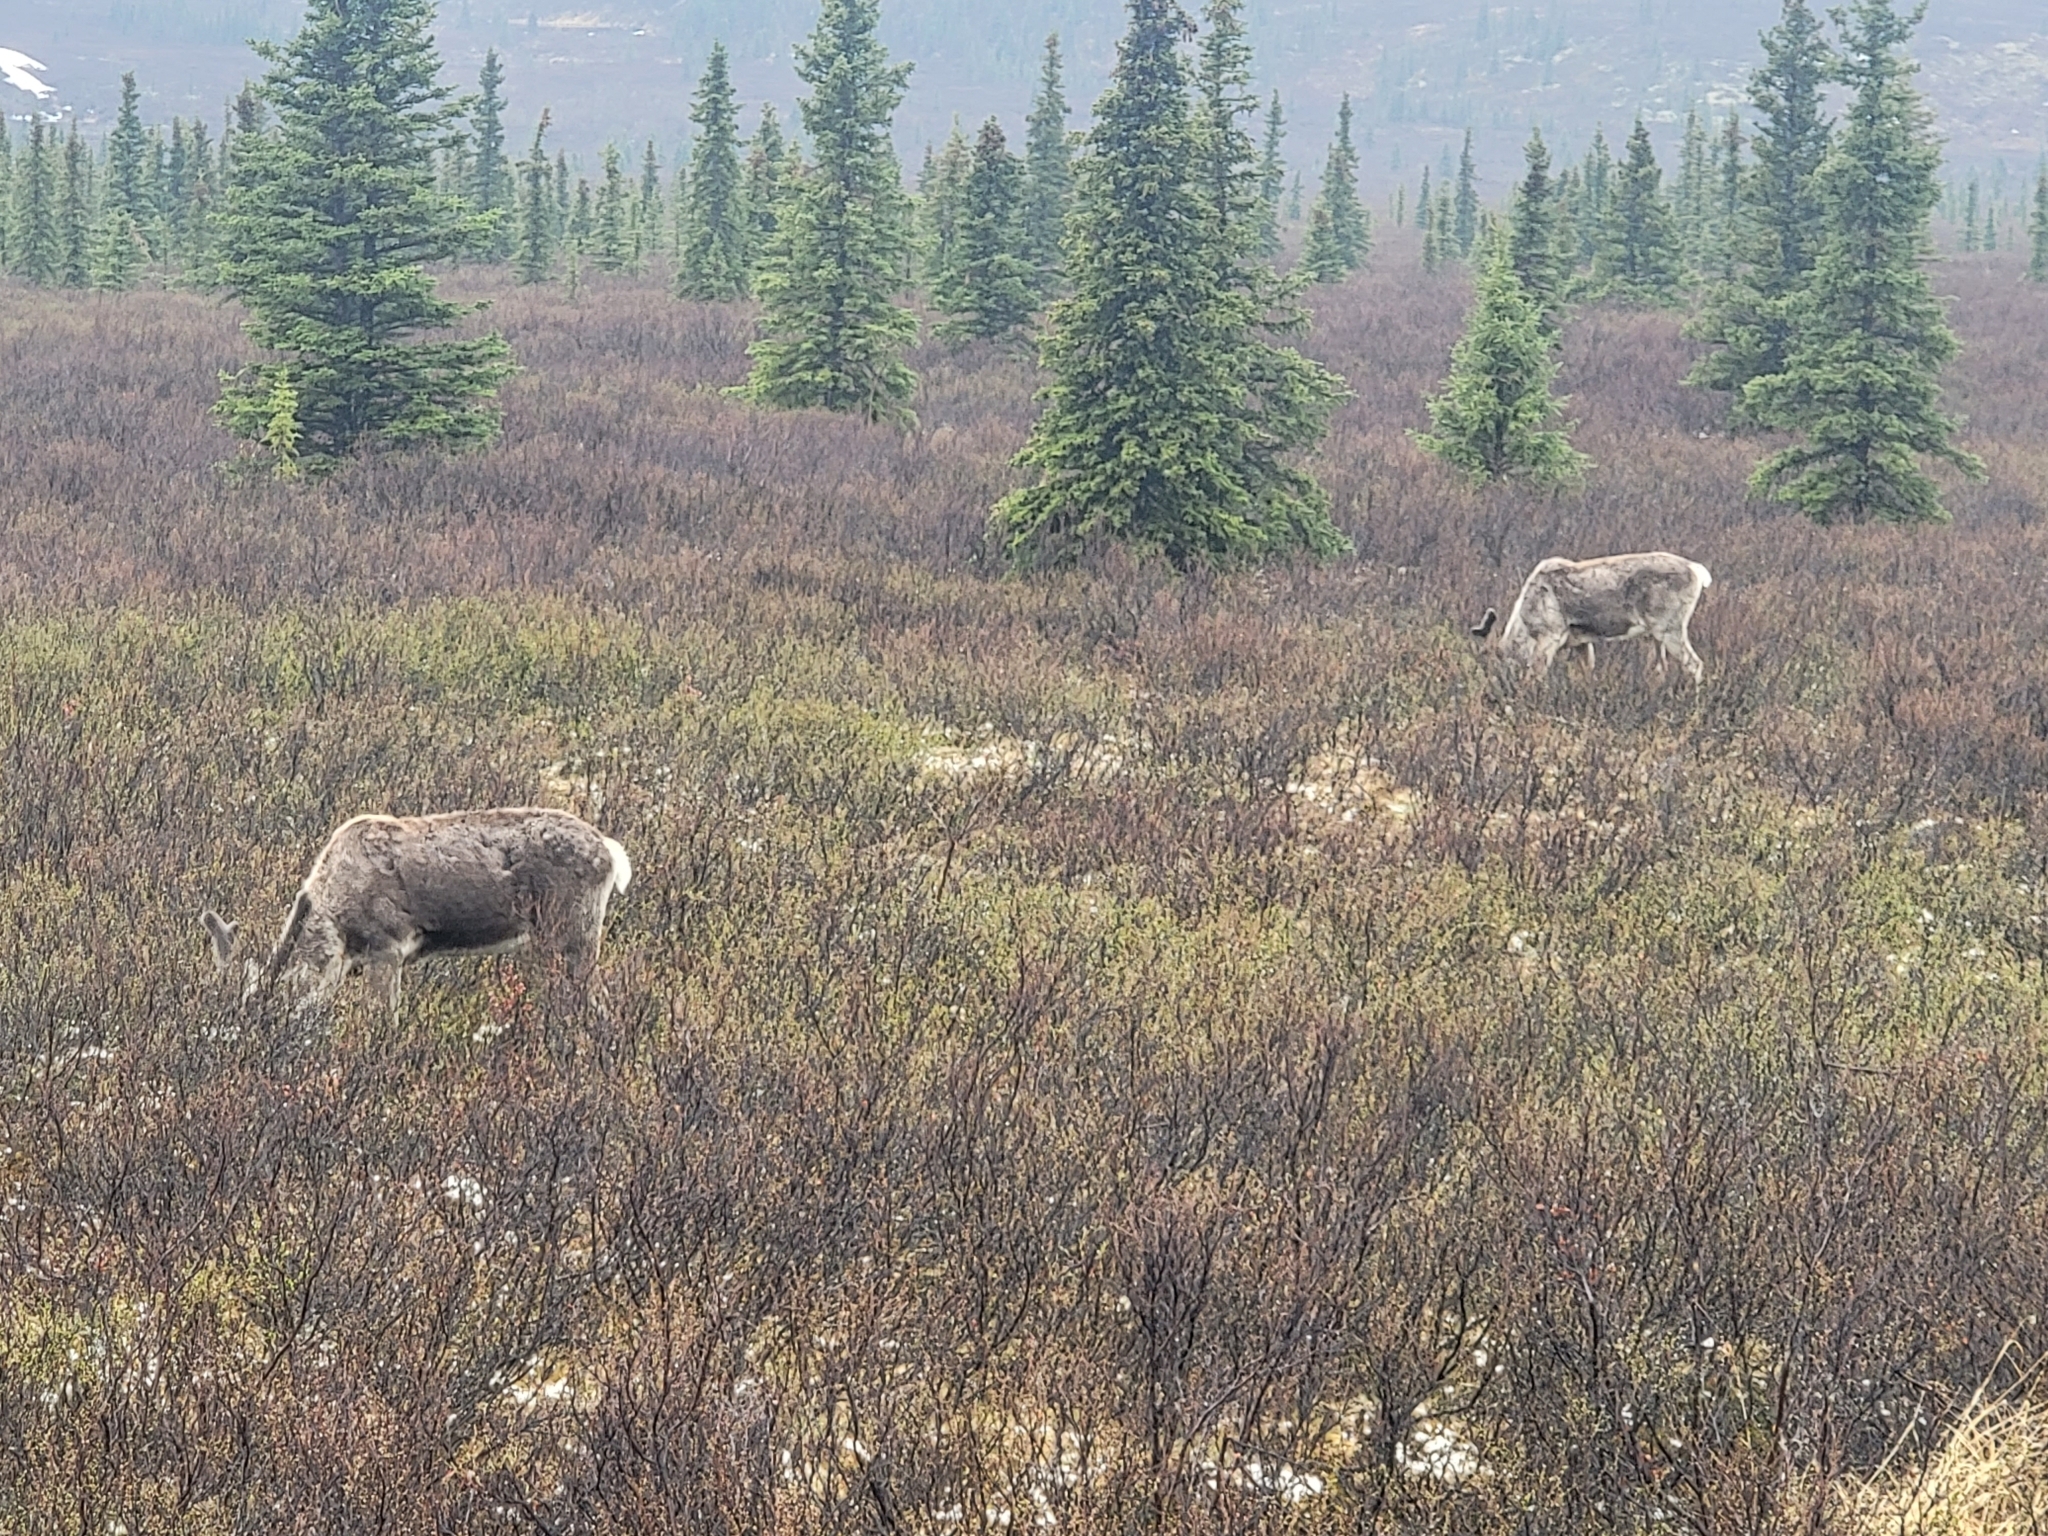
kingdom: Animalia
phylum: Chordata
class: Mammalia
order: Artiodactyla
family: Cervidae
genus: Rangifer
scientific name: Rangifer tarandus
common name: Reindeer
